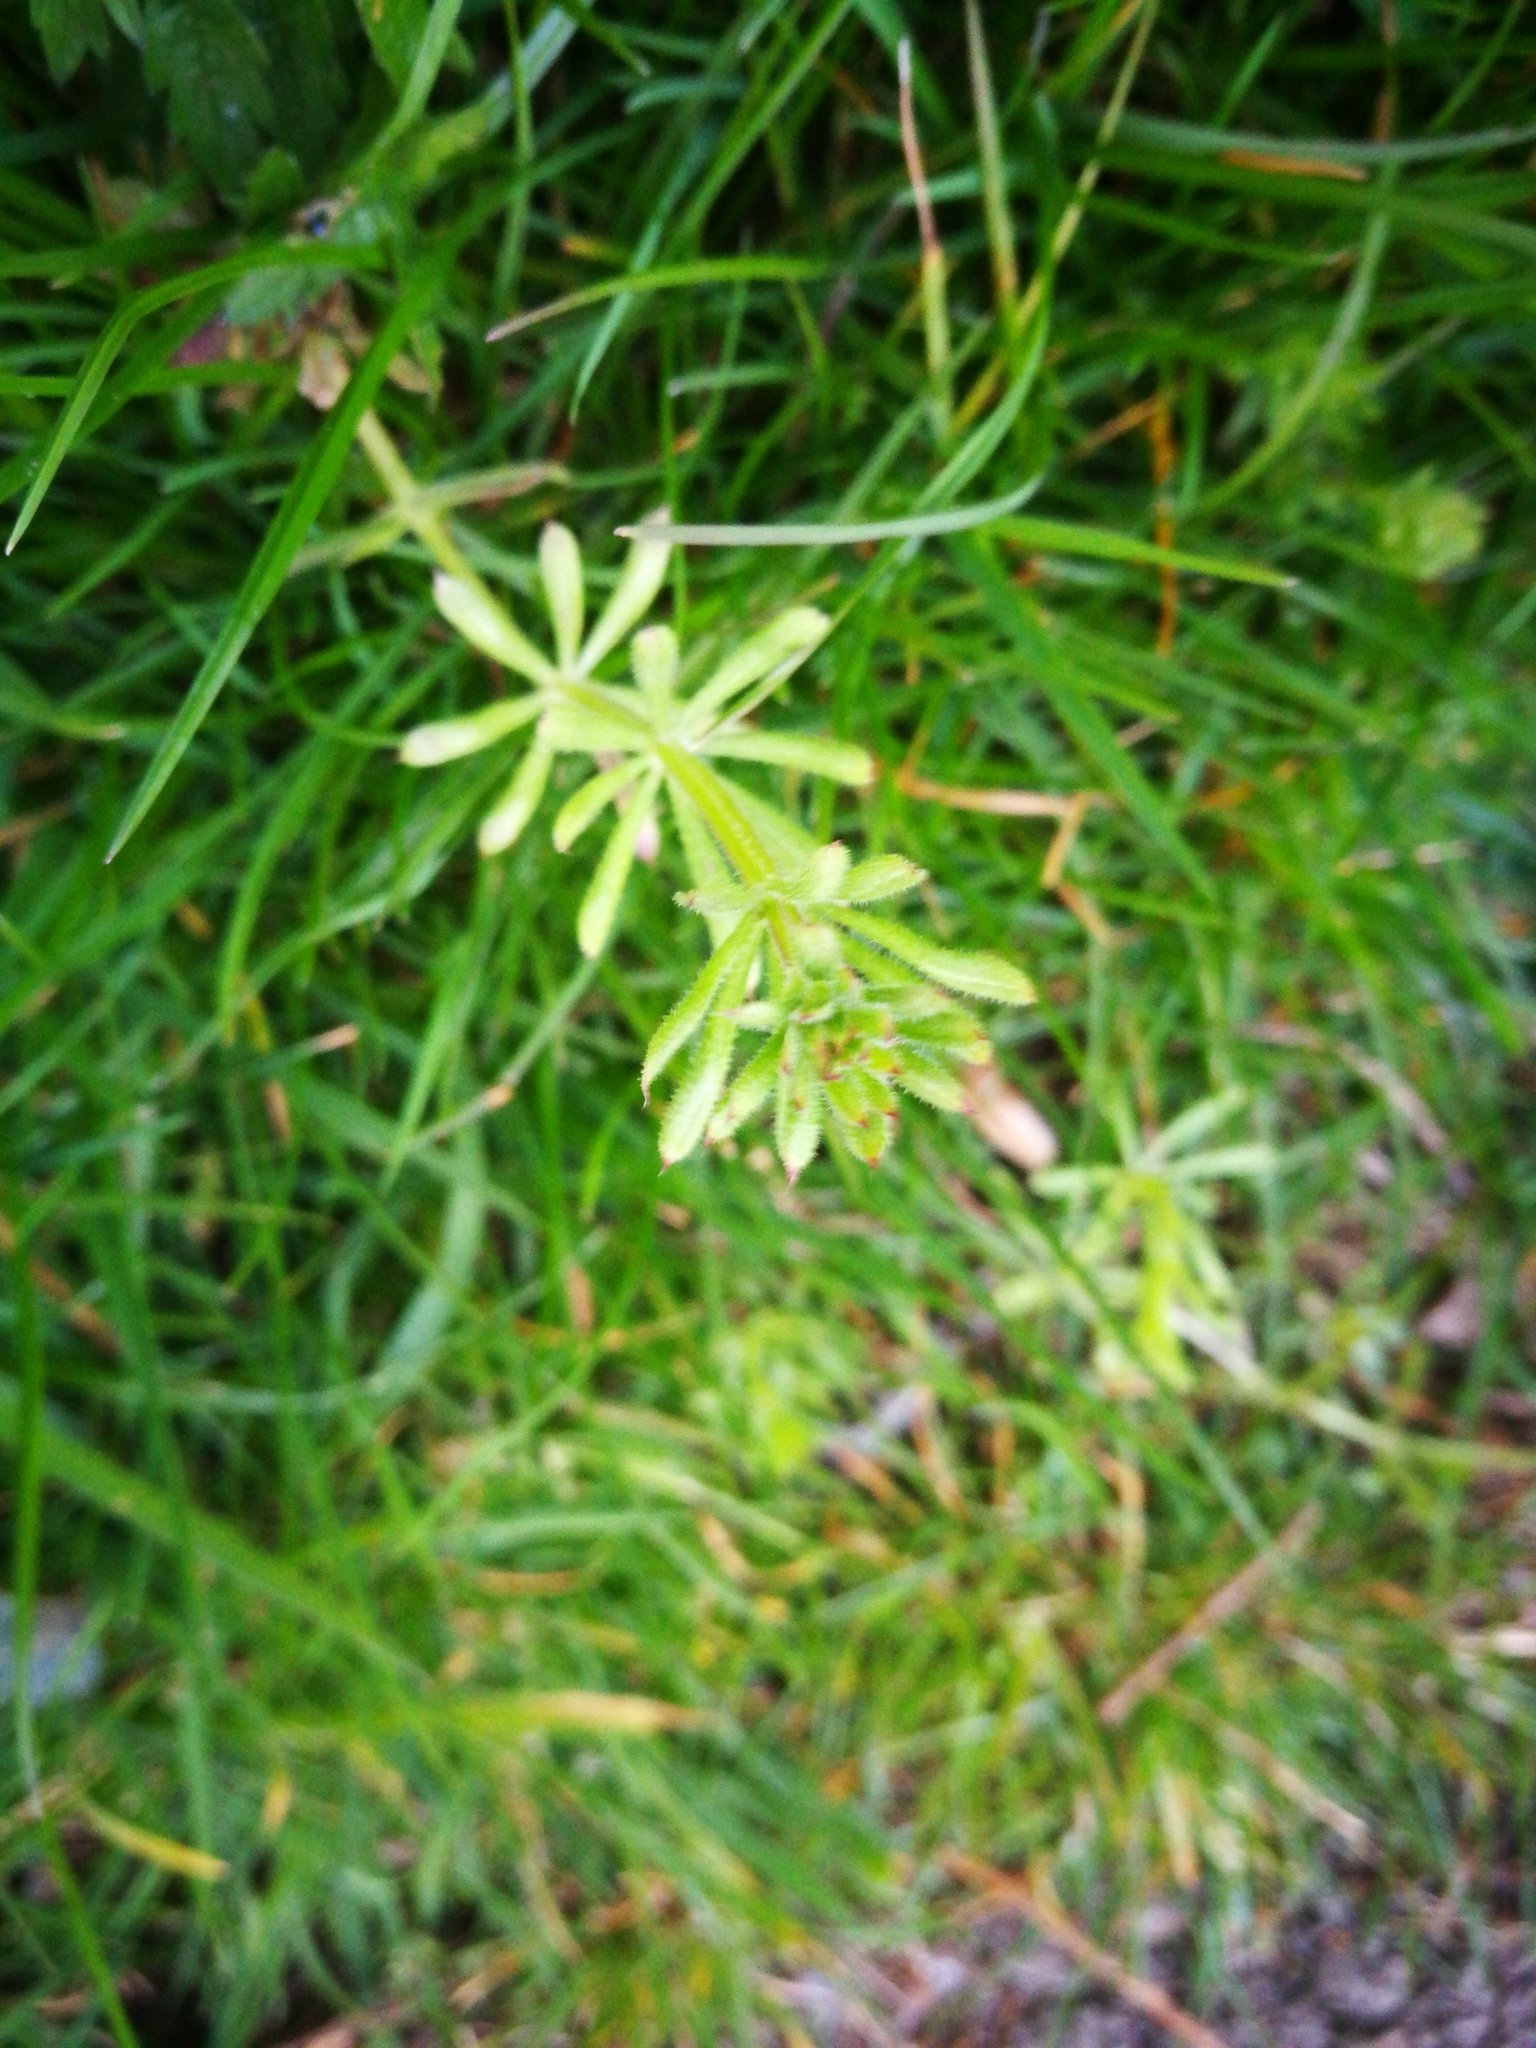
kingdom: Plantae
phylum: Tracheophyta
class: Magnoliopsida
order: Gentianales
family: Rubiaceae
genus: Galium
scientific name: Galium aparine
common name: Cleavers
